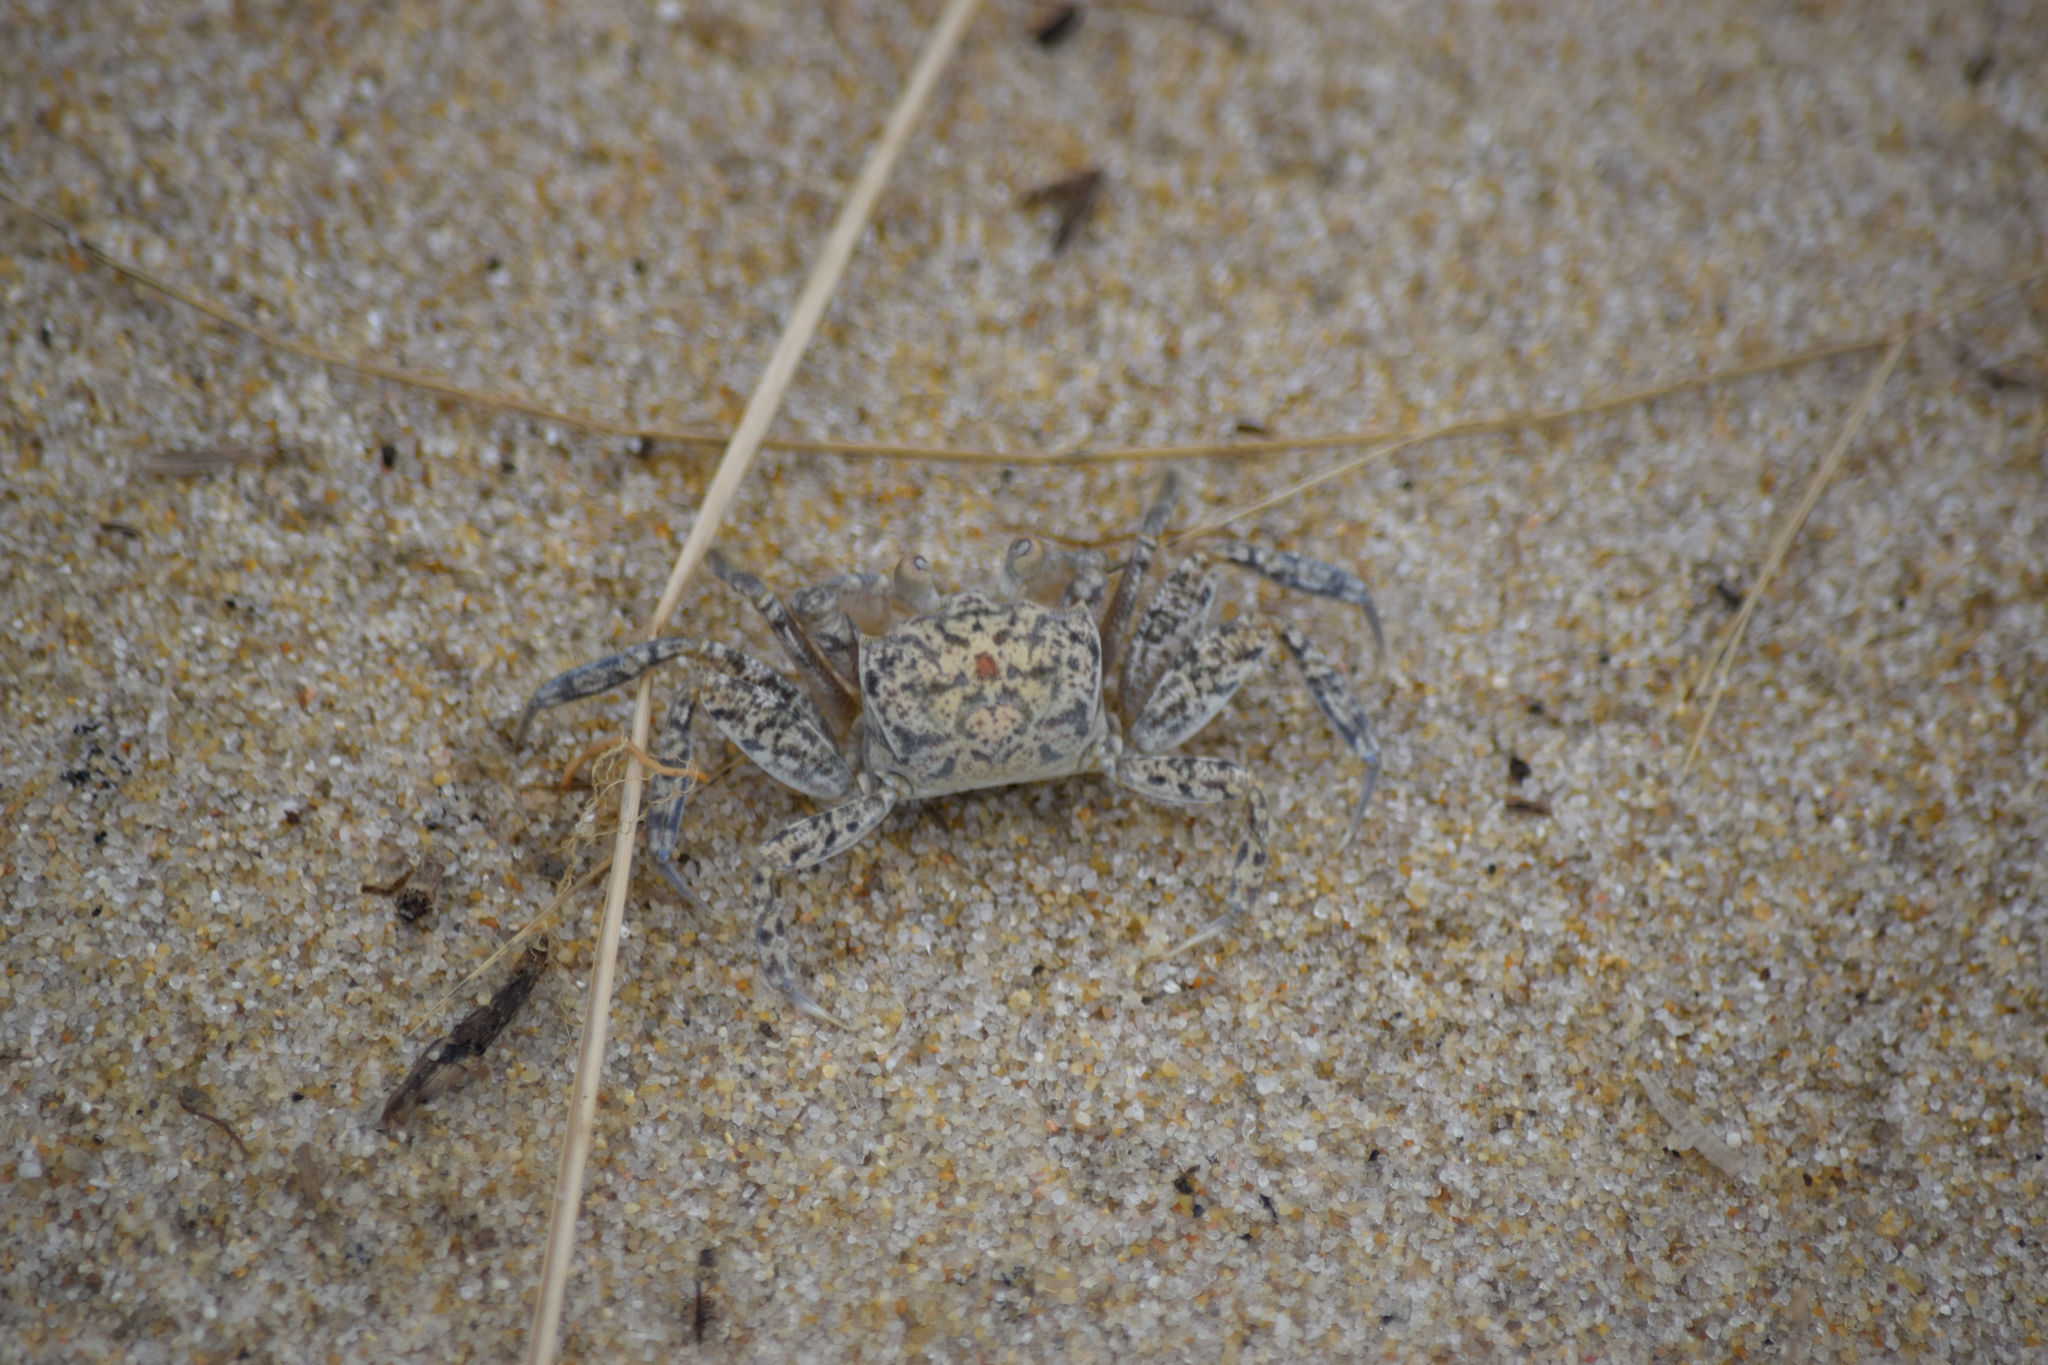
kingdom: Animalia
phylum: Arthropoda
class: Malacostraca
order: Decapoda
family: Ocypodidae
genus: Ocypode
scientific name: Ocypode quadrata
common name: Ghost crab
